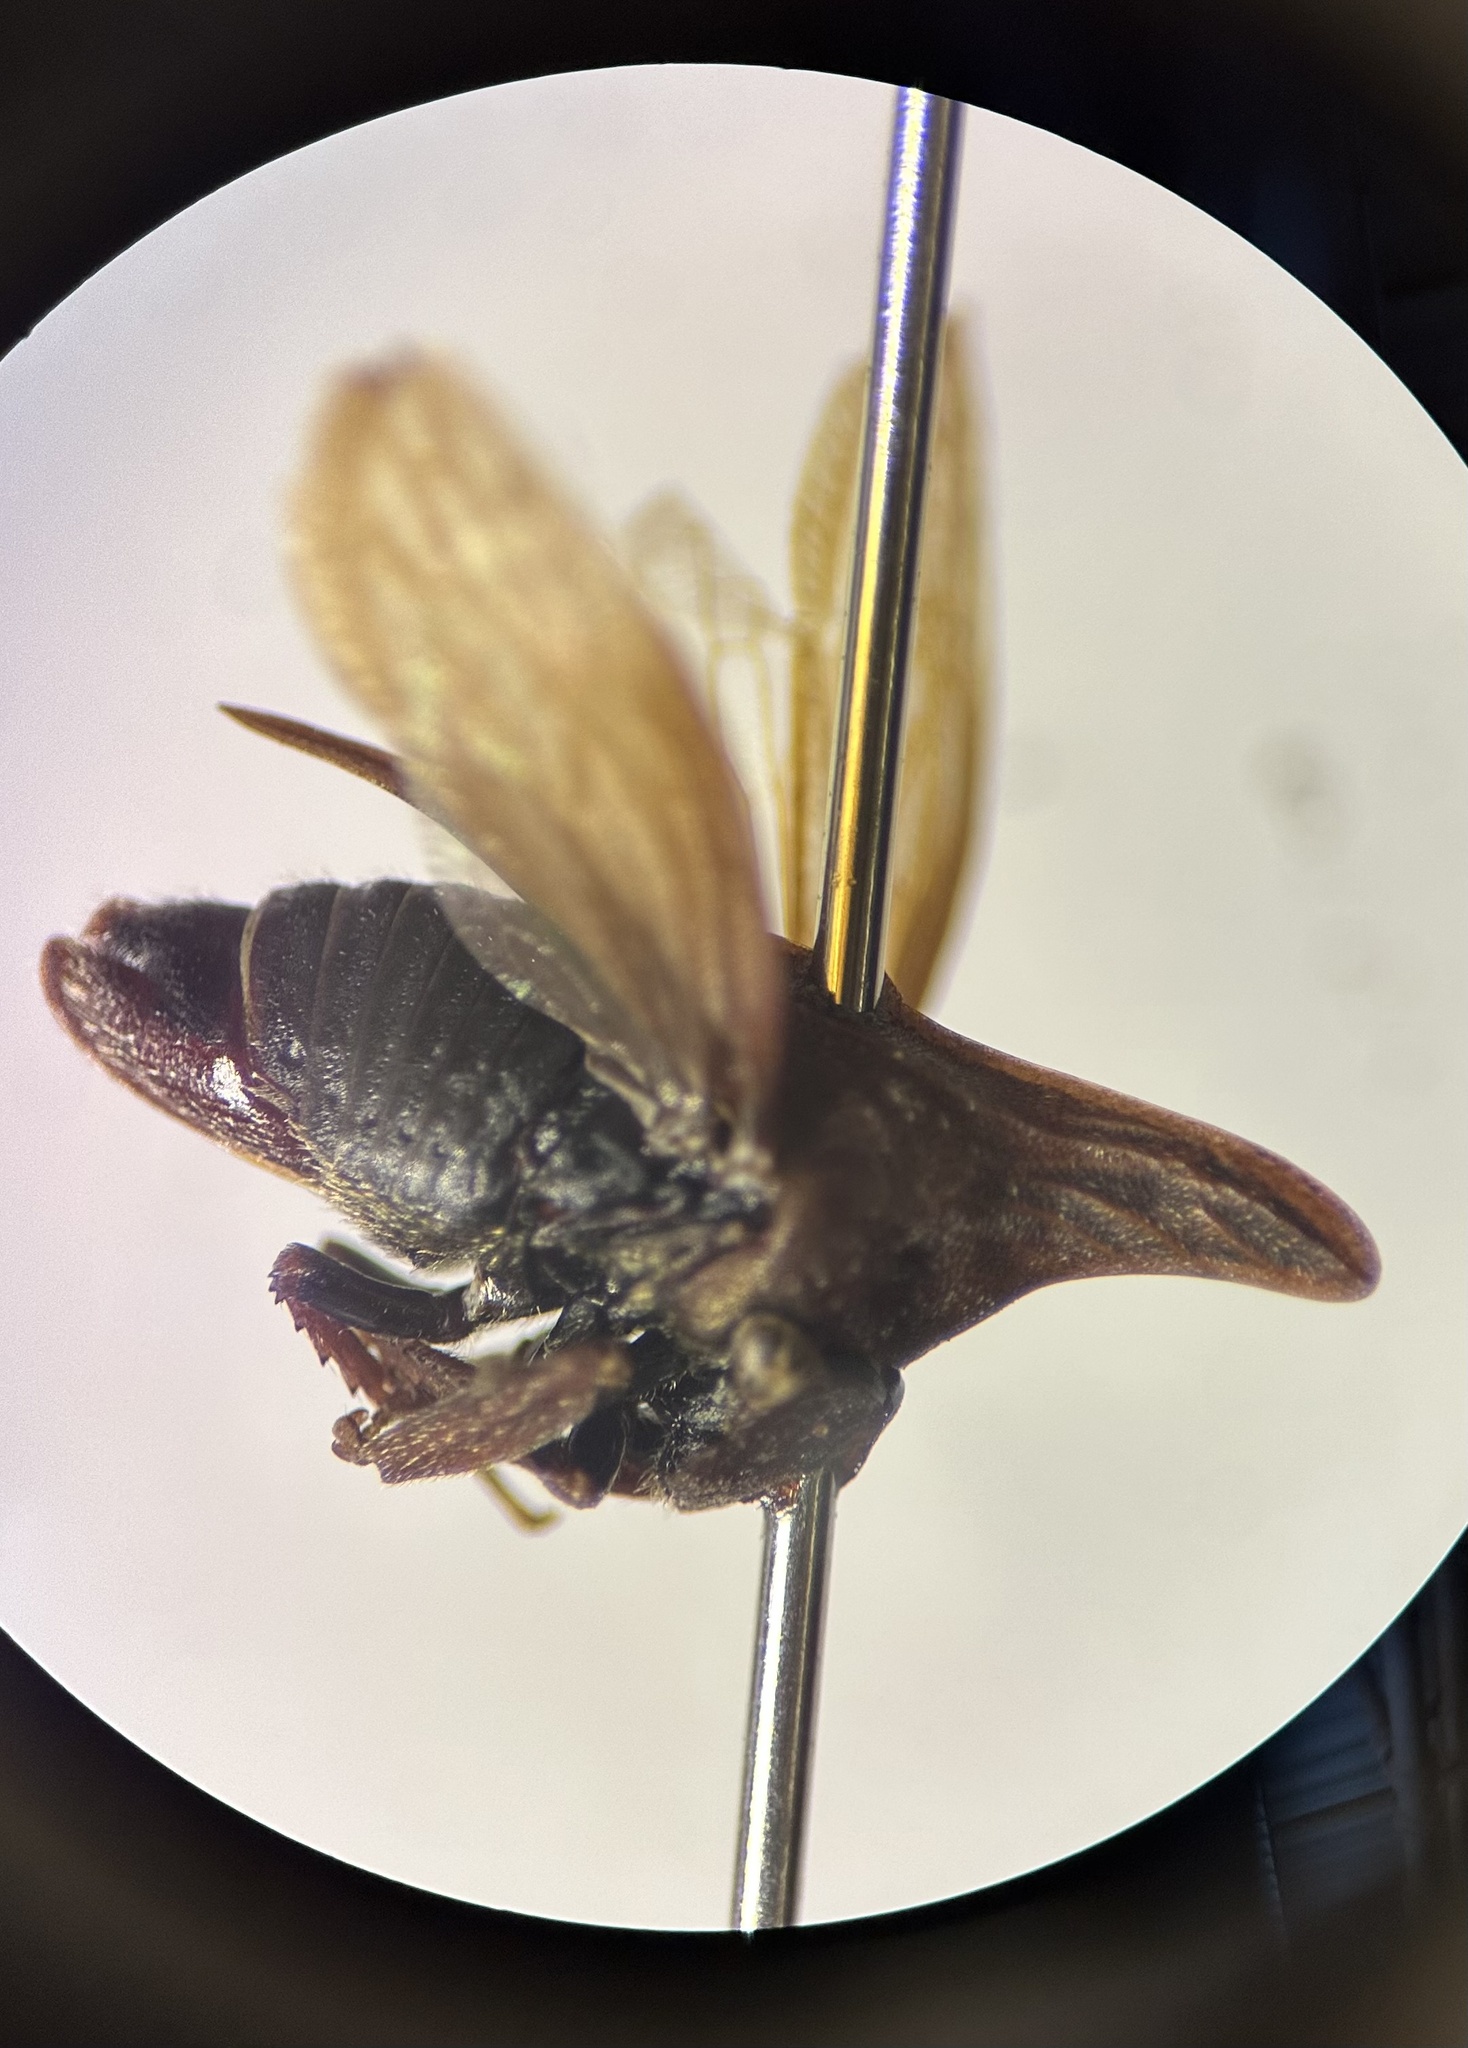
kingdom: Animalia
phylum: Arthropoda
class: Insecta
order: Hemiptera
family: Membracidae
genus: Enchenopa
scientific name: Enchenopa latipes
